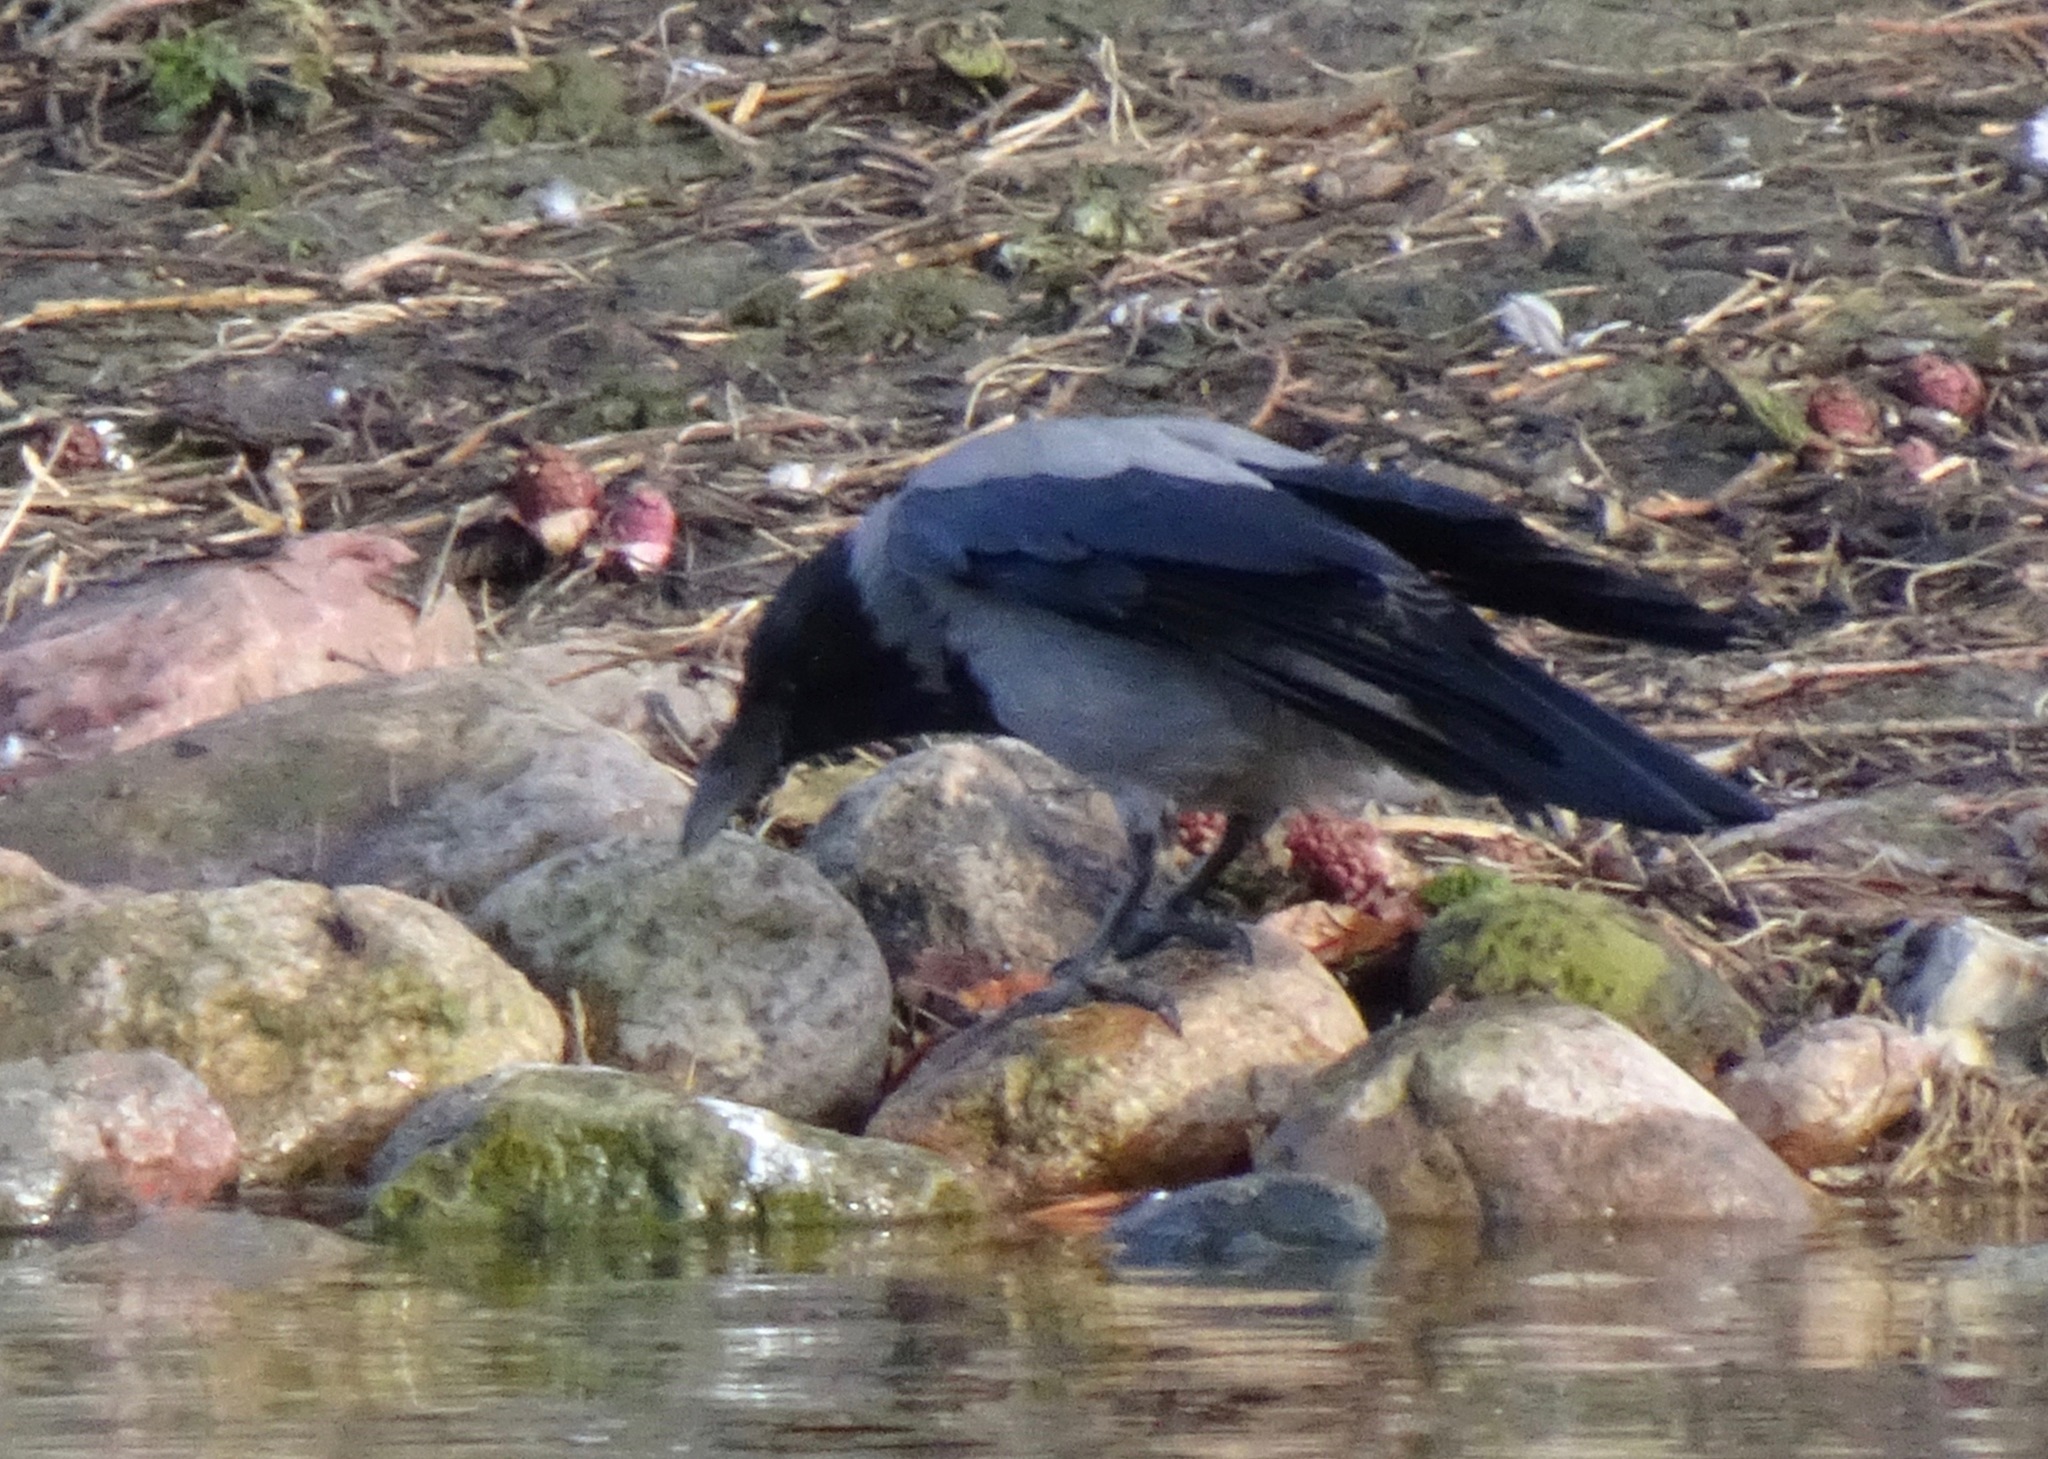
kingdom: Animalia
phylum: Chordata
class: Aves
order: Passeriformes
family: Corvidae
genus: Corvus
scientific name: Corvus cornix
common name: Hooded crow
